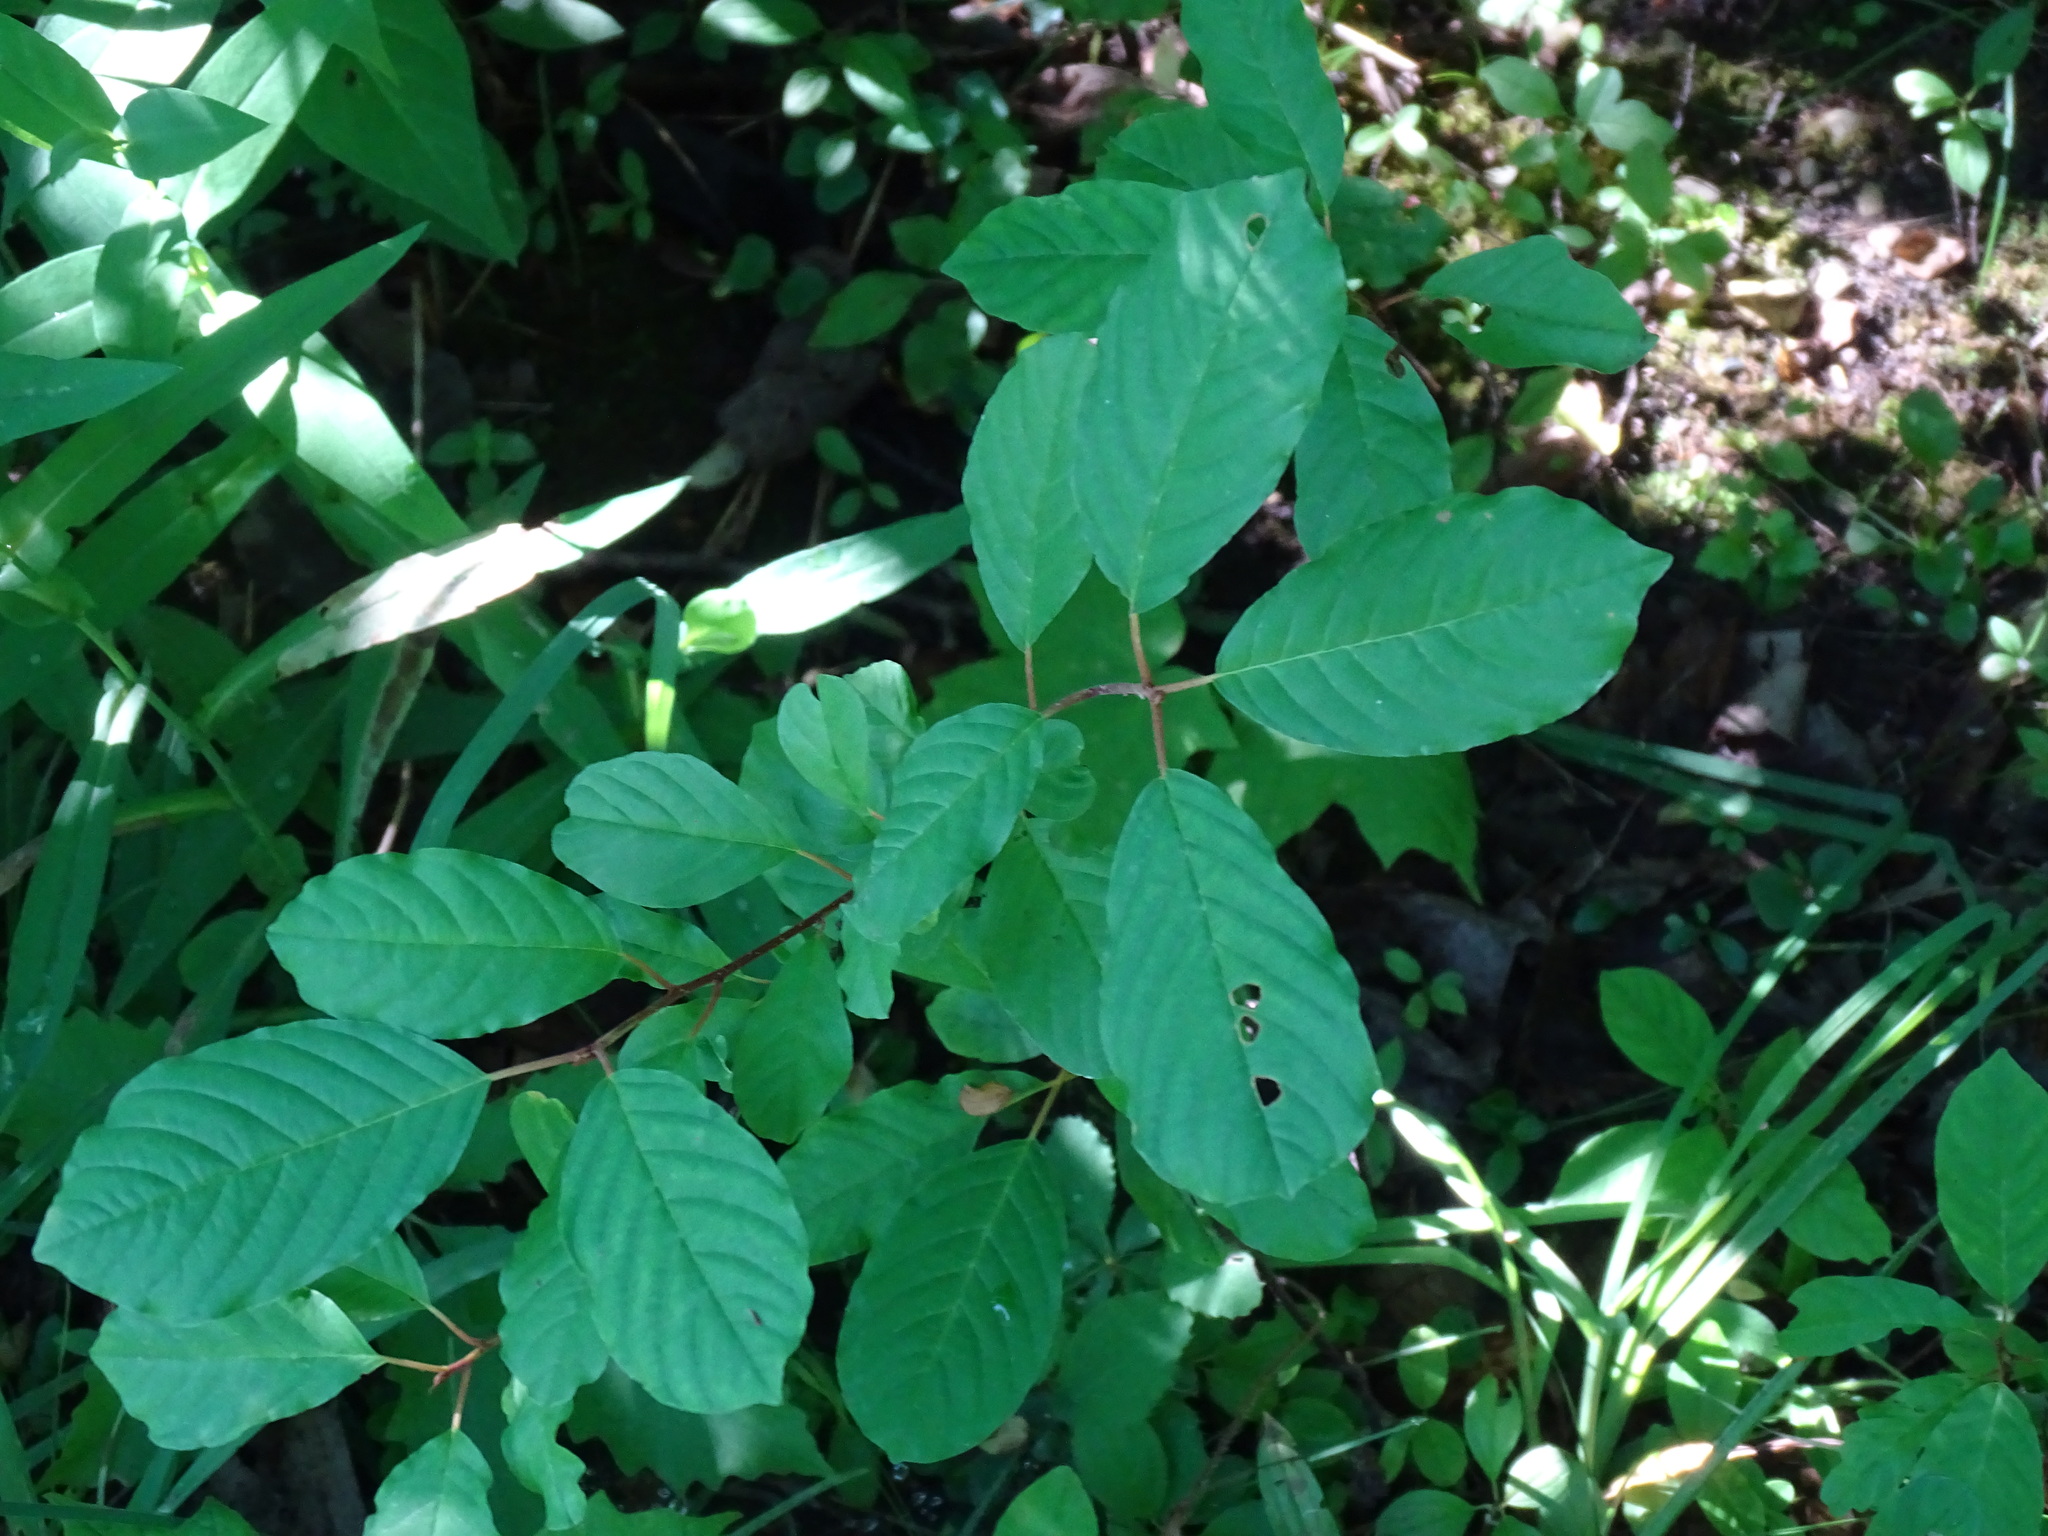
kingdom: Plantae
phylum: Tracheophyta
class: Magnoliopsida
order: Rosales
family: Rhamnaceae
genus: Frangula
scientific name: Frangula alnus
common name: Alder buckthorn
